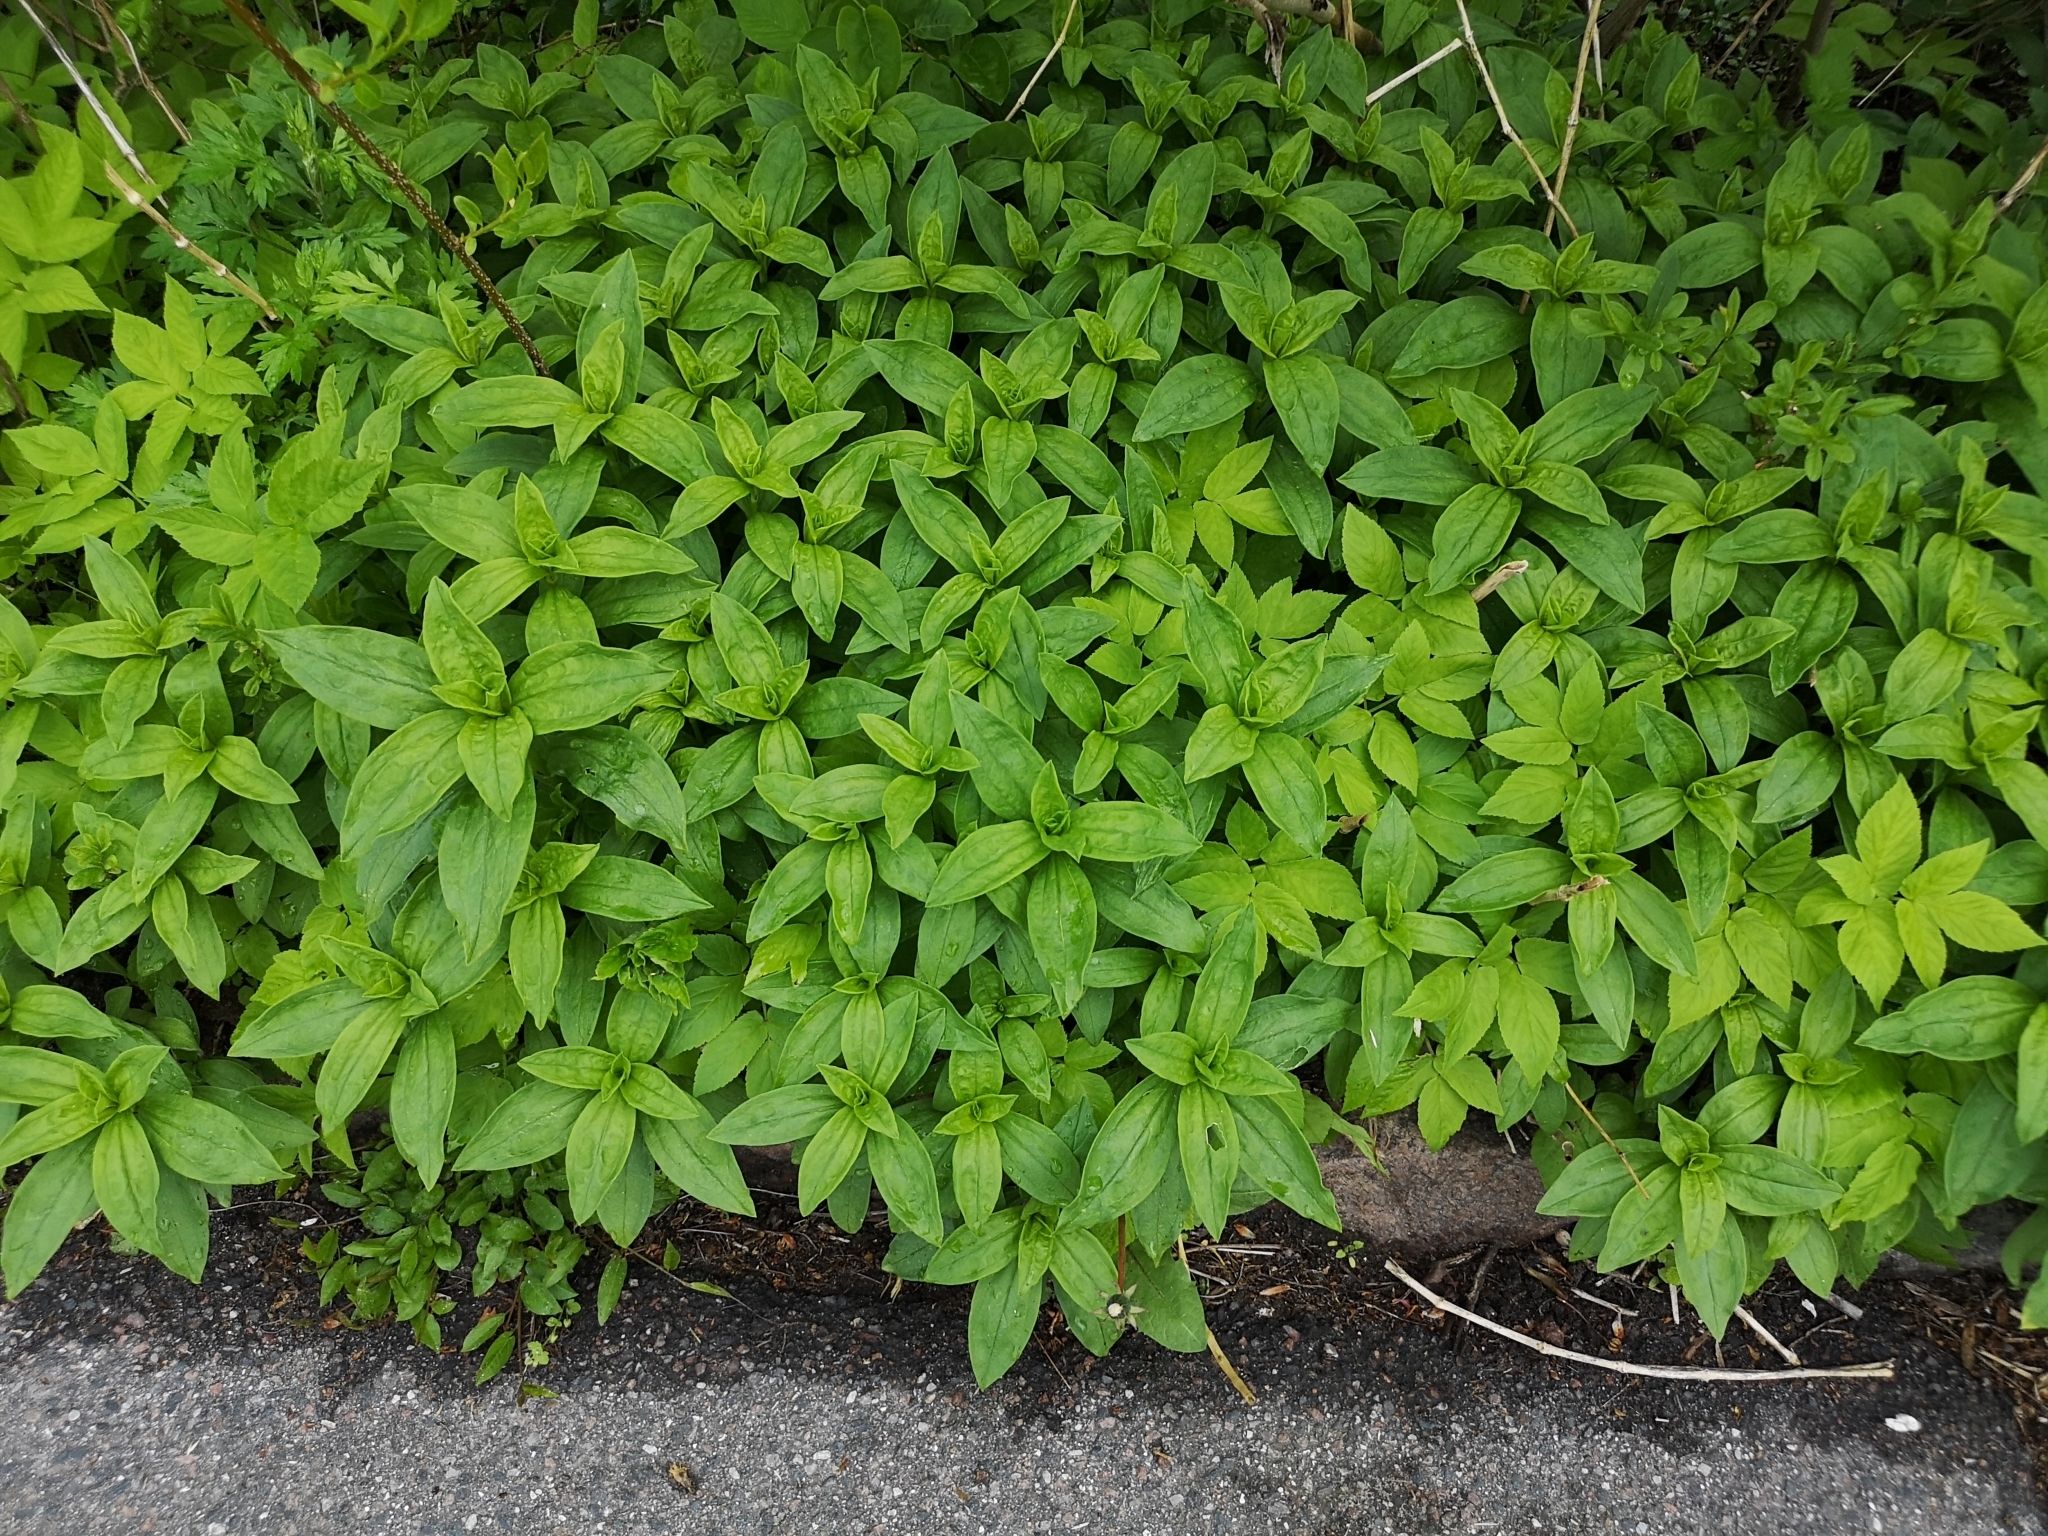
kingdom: Plantae
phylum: Tracheophyta
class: Magnoliopsida
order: Caryophyllales
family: Caryophyllaceae
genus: Saponaria
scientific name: Saponaria officinalis
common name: Soapwort
